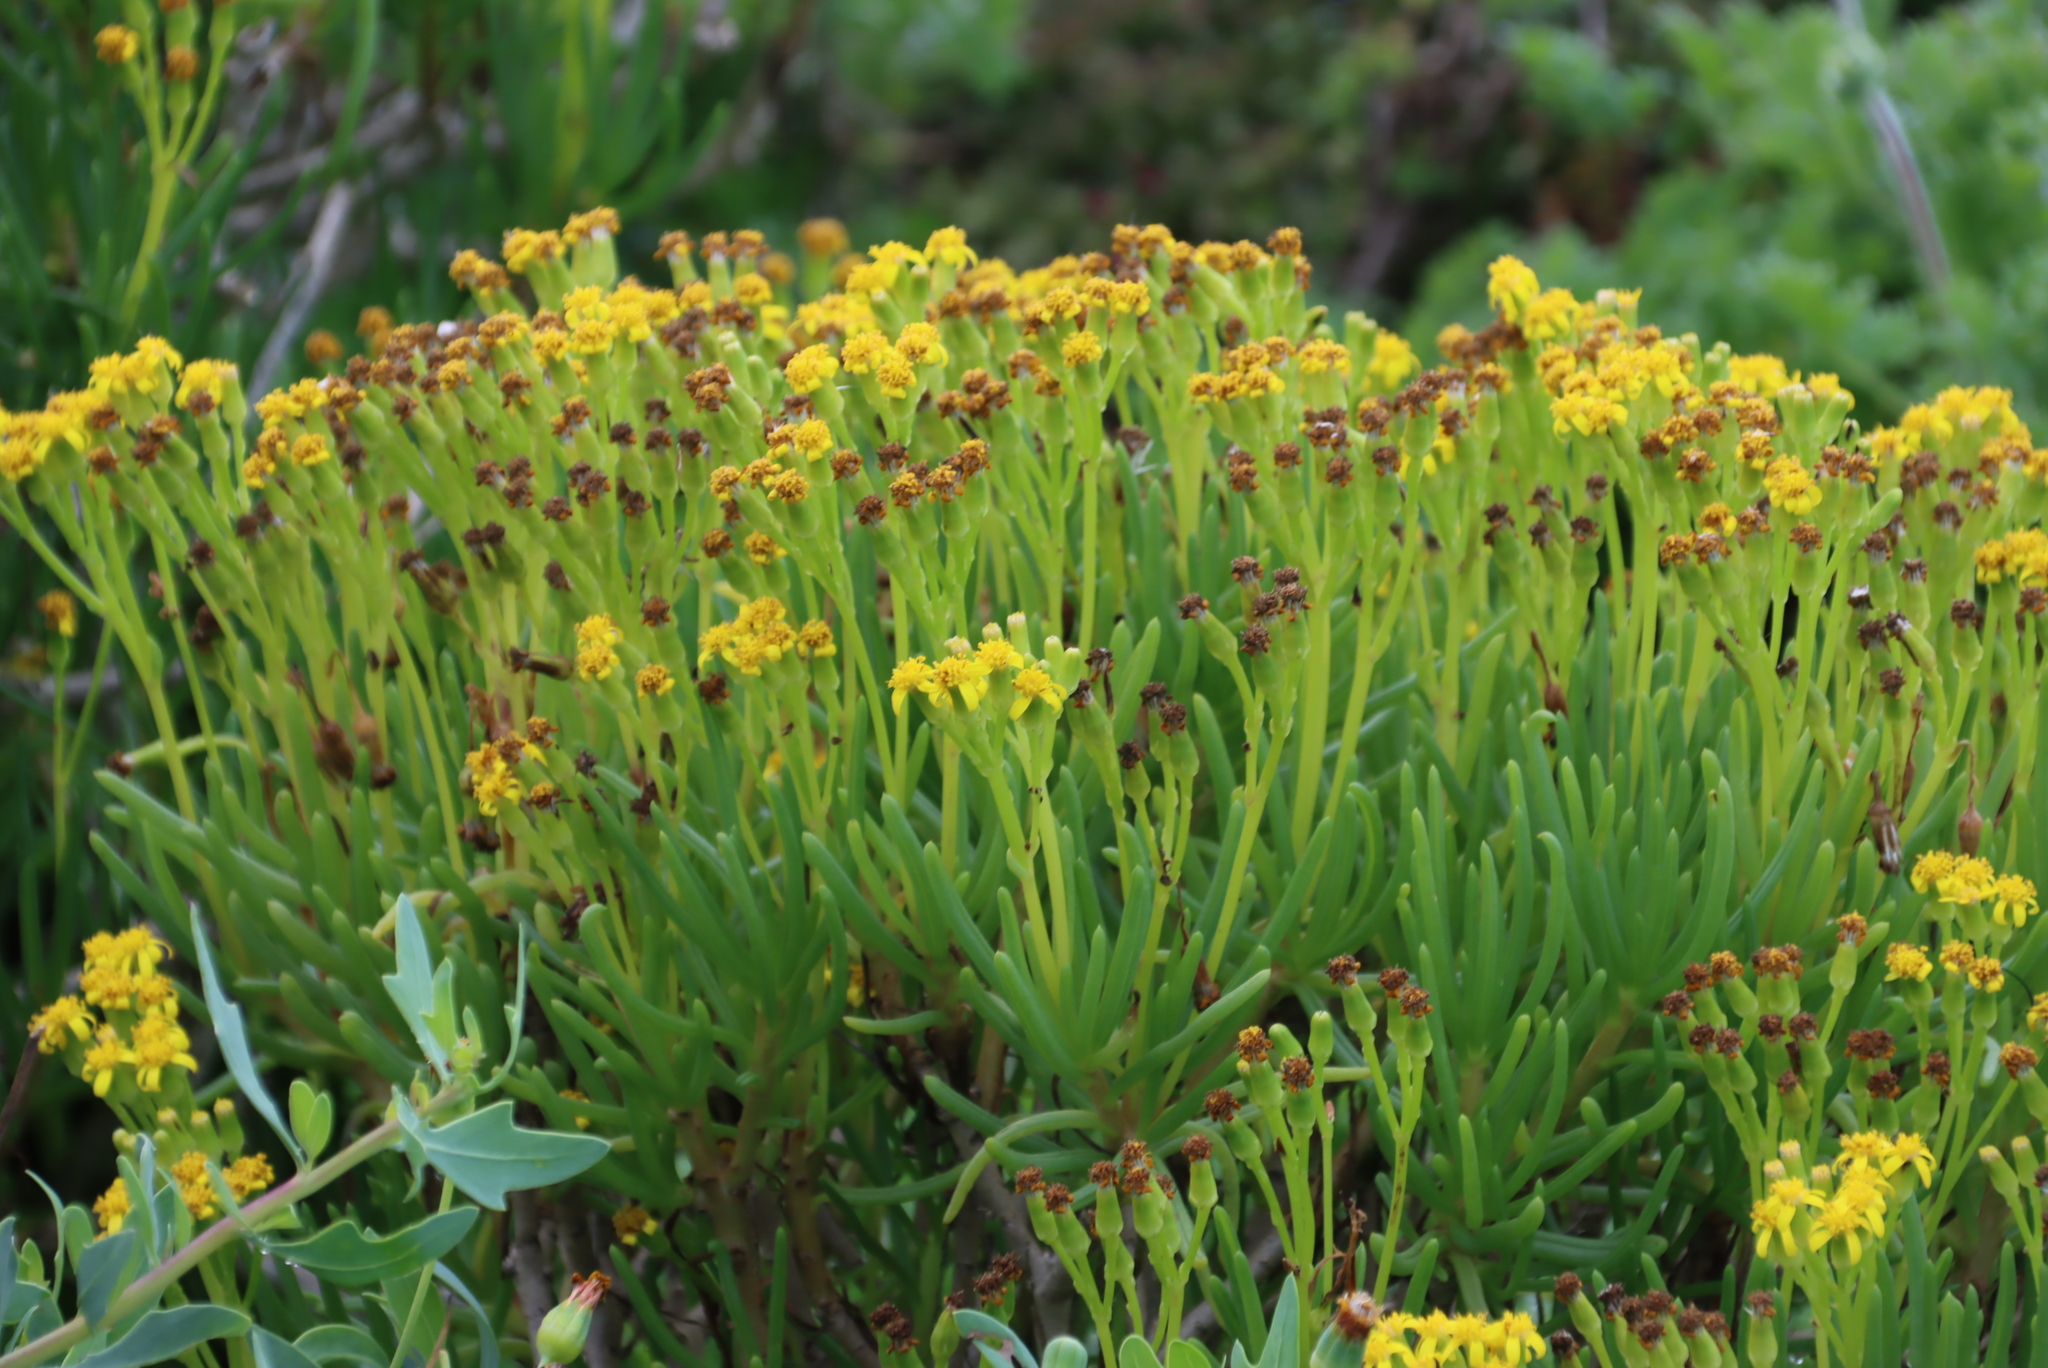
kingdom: Plantae
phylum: Tracheophyta
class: Magnoliopsida
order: Asterales
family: Asteraceae
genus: Curio
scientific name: Curio corymbifer
